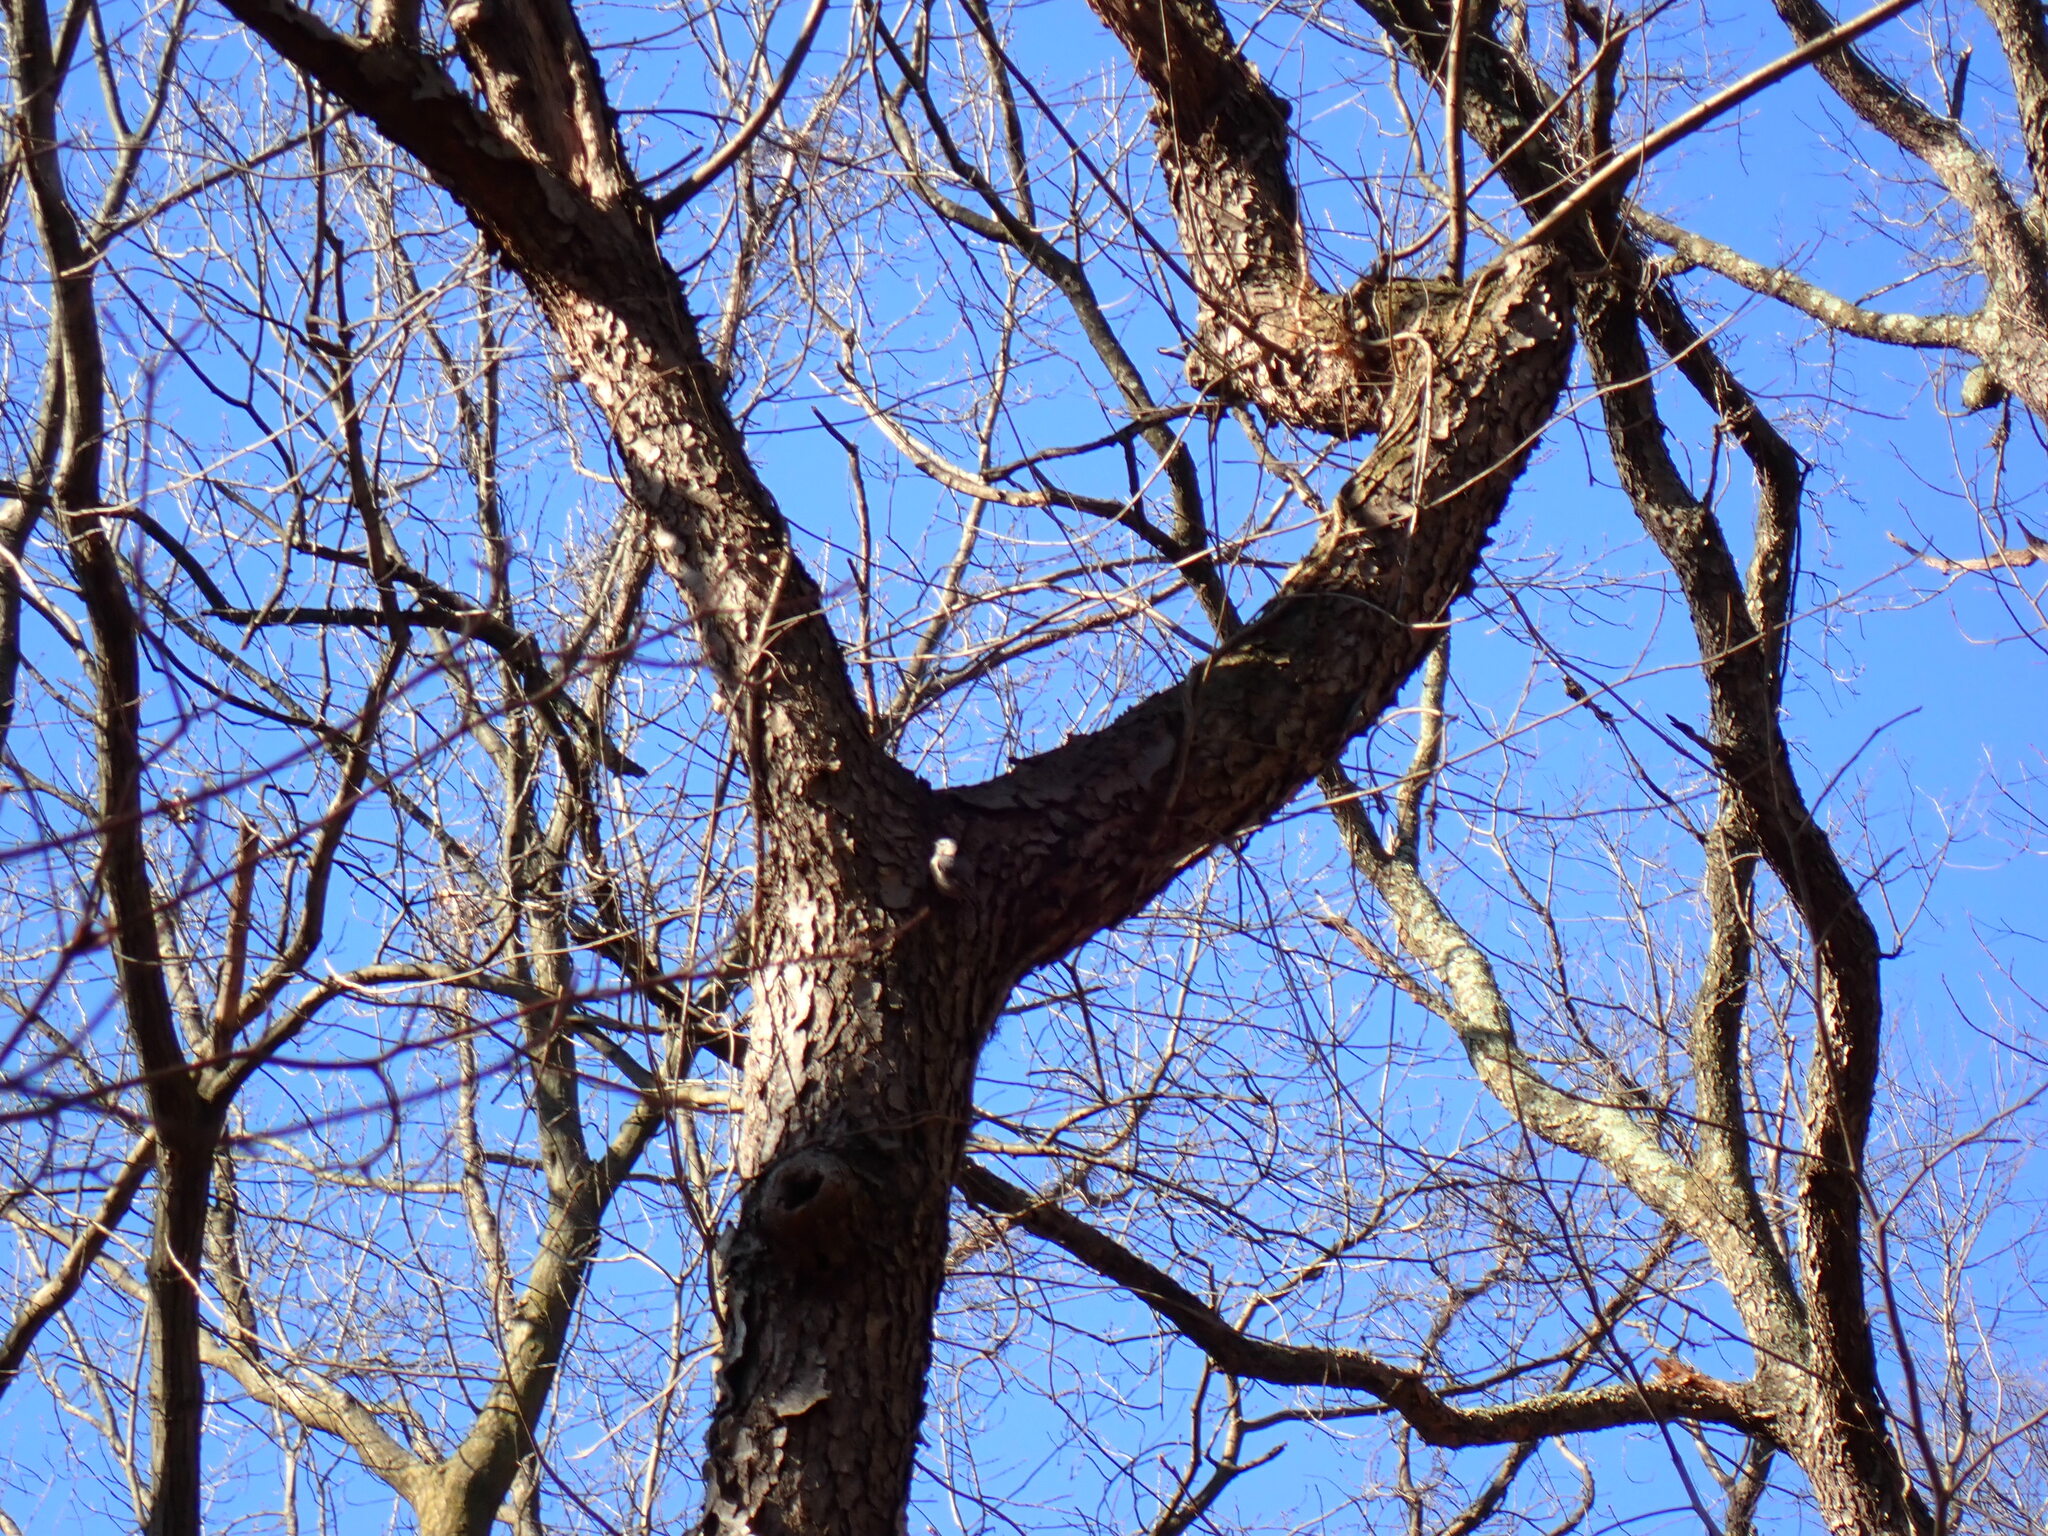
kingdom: Animalia
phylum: Chordata
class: Aves
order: Passeriformes
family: Sittidae
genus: Sitta
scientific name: Sitta carolinensis
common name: White-breasted nuthatch
